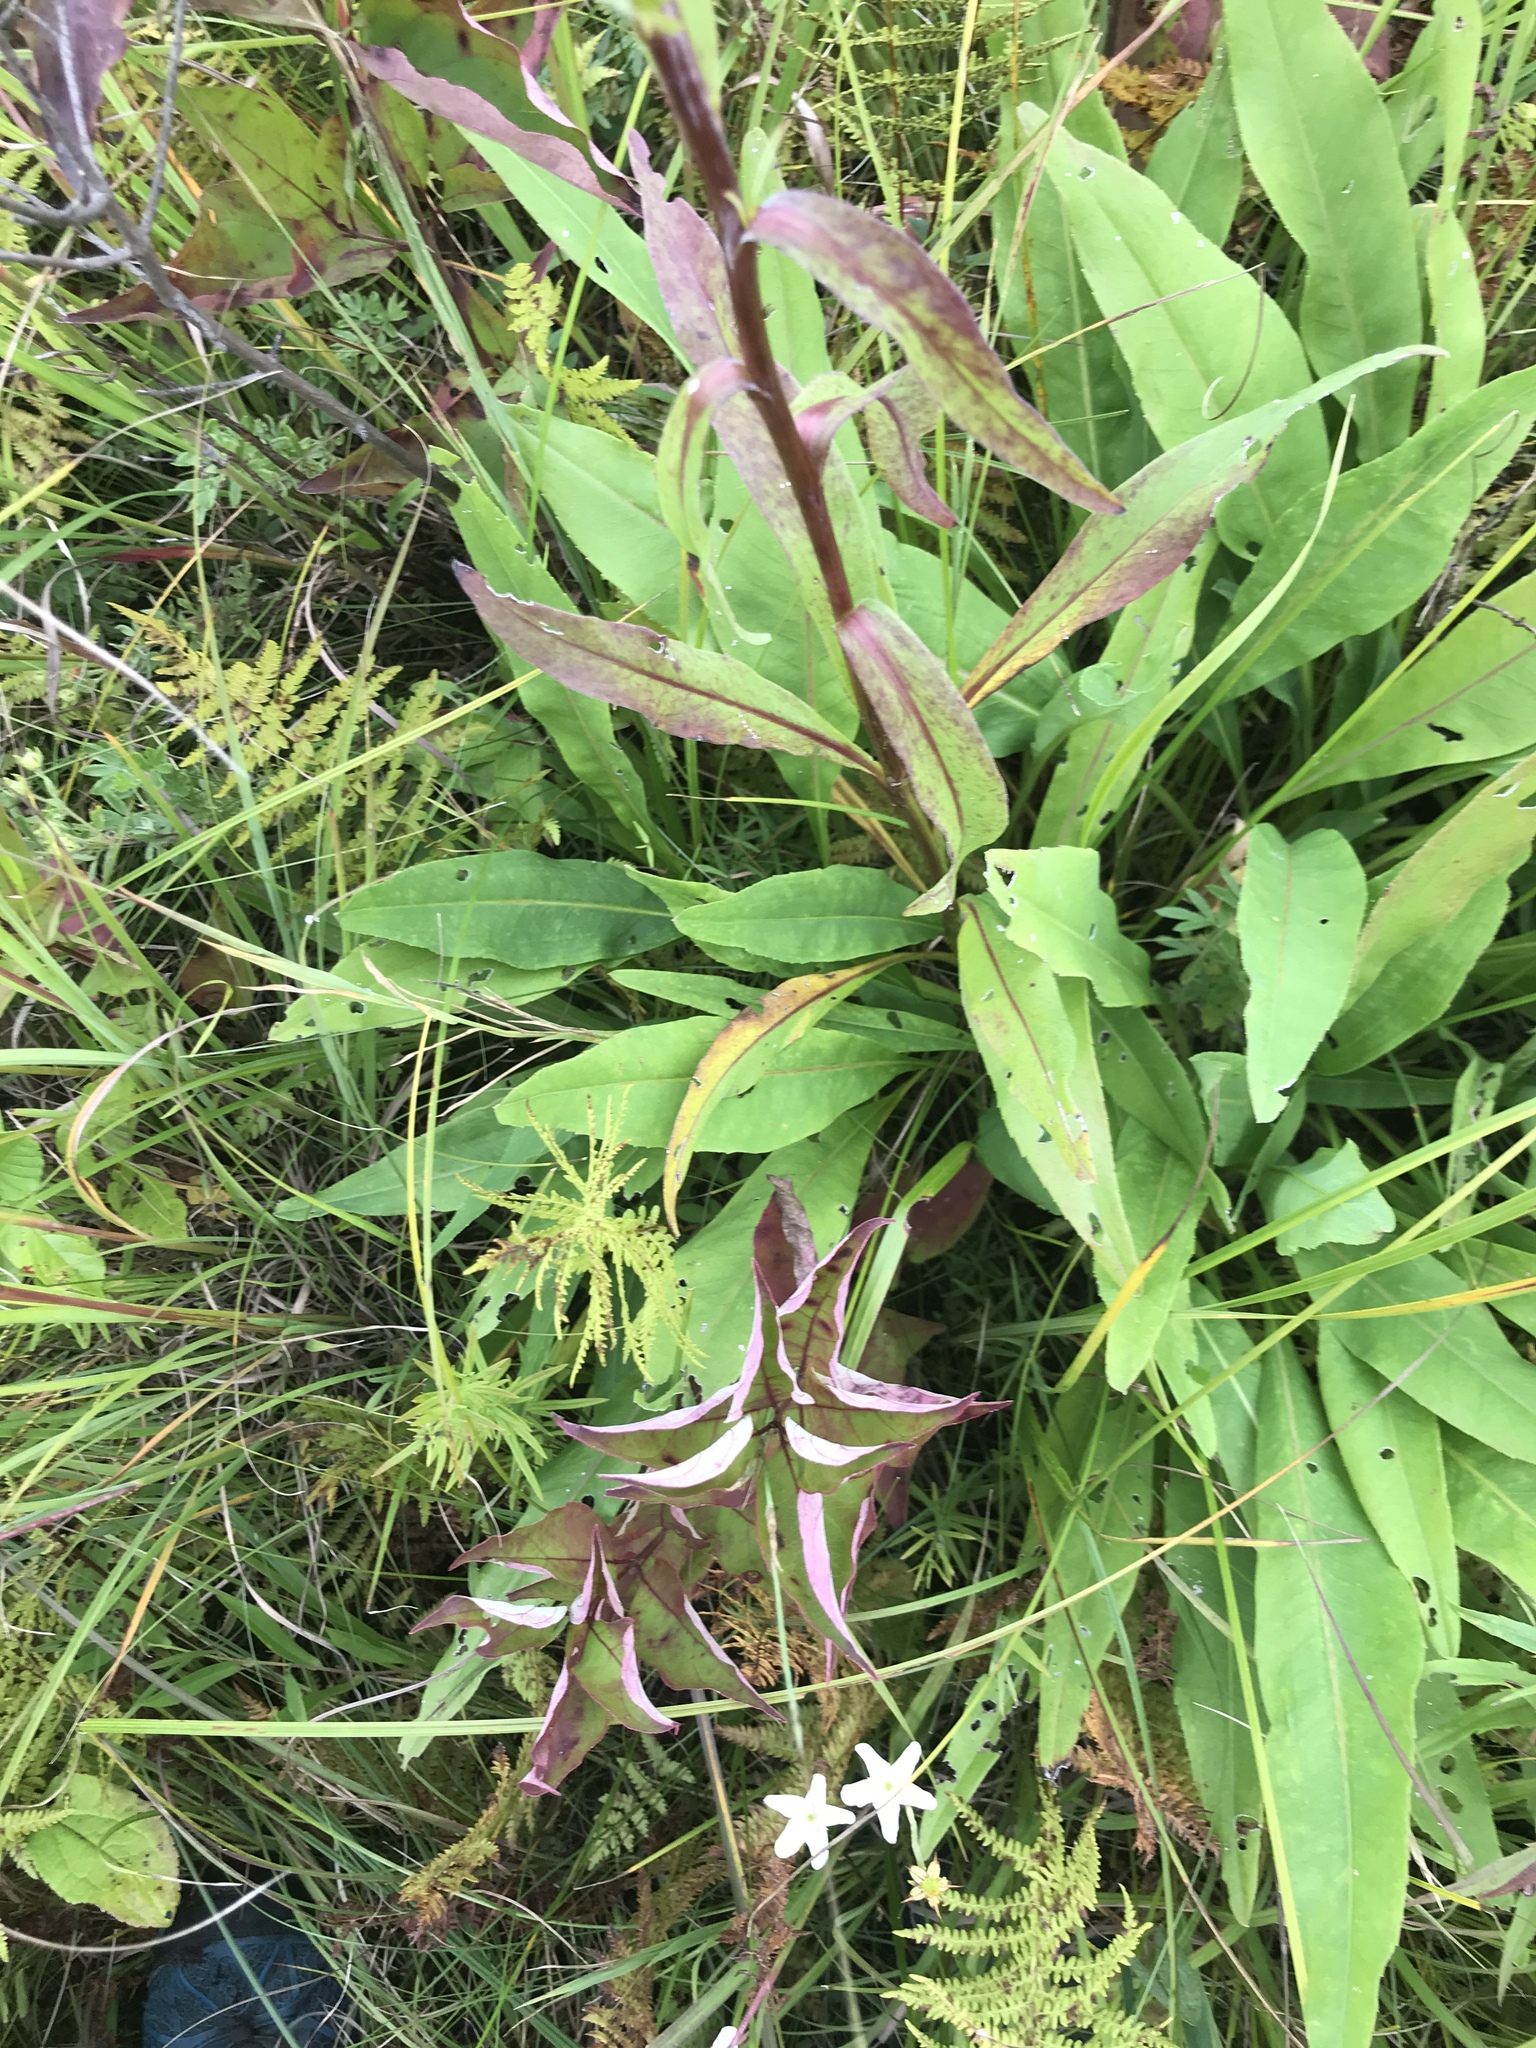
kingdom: Plantae
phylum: Tracheophyta
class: Magnoliopsida
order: Asterales
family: Asteraceae
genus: Solidago
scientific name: Solidago ohioensis
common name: Ohio goldenrod
